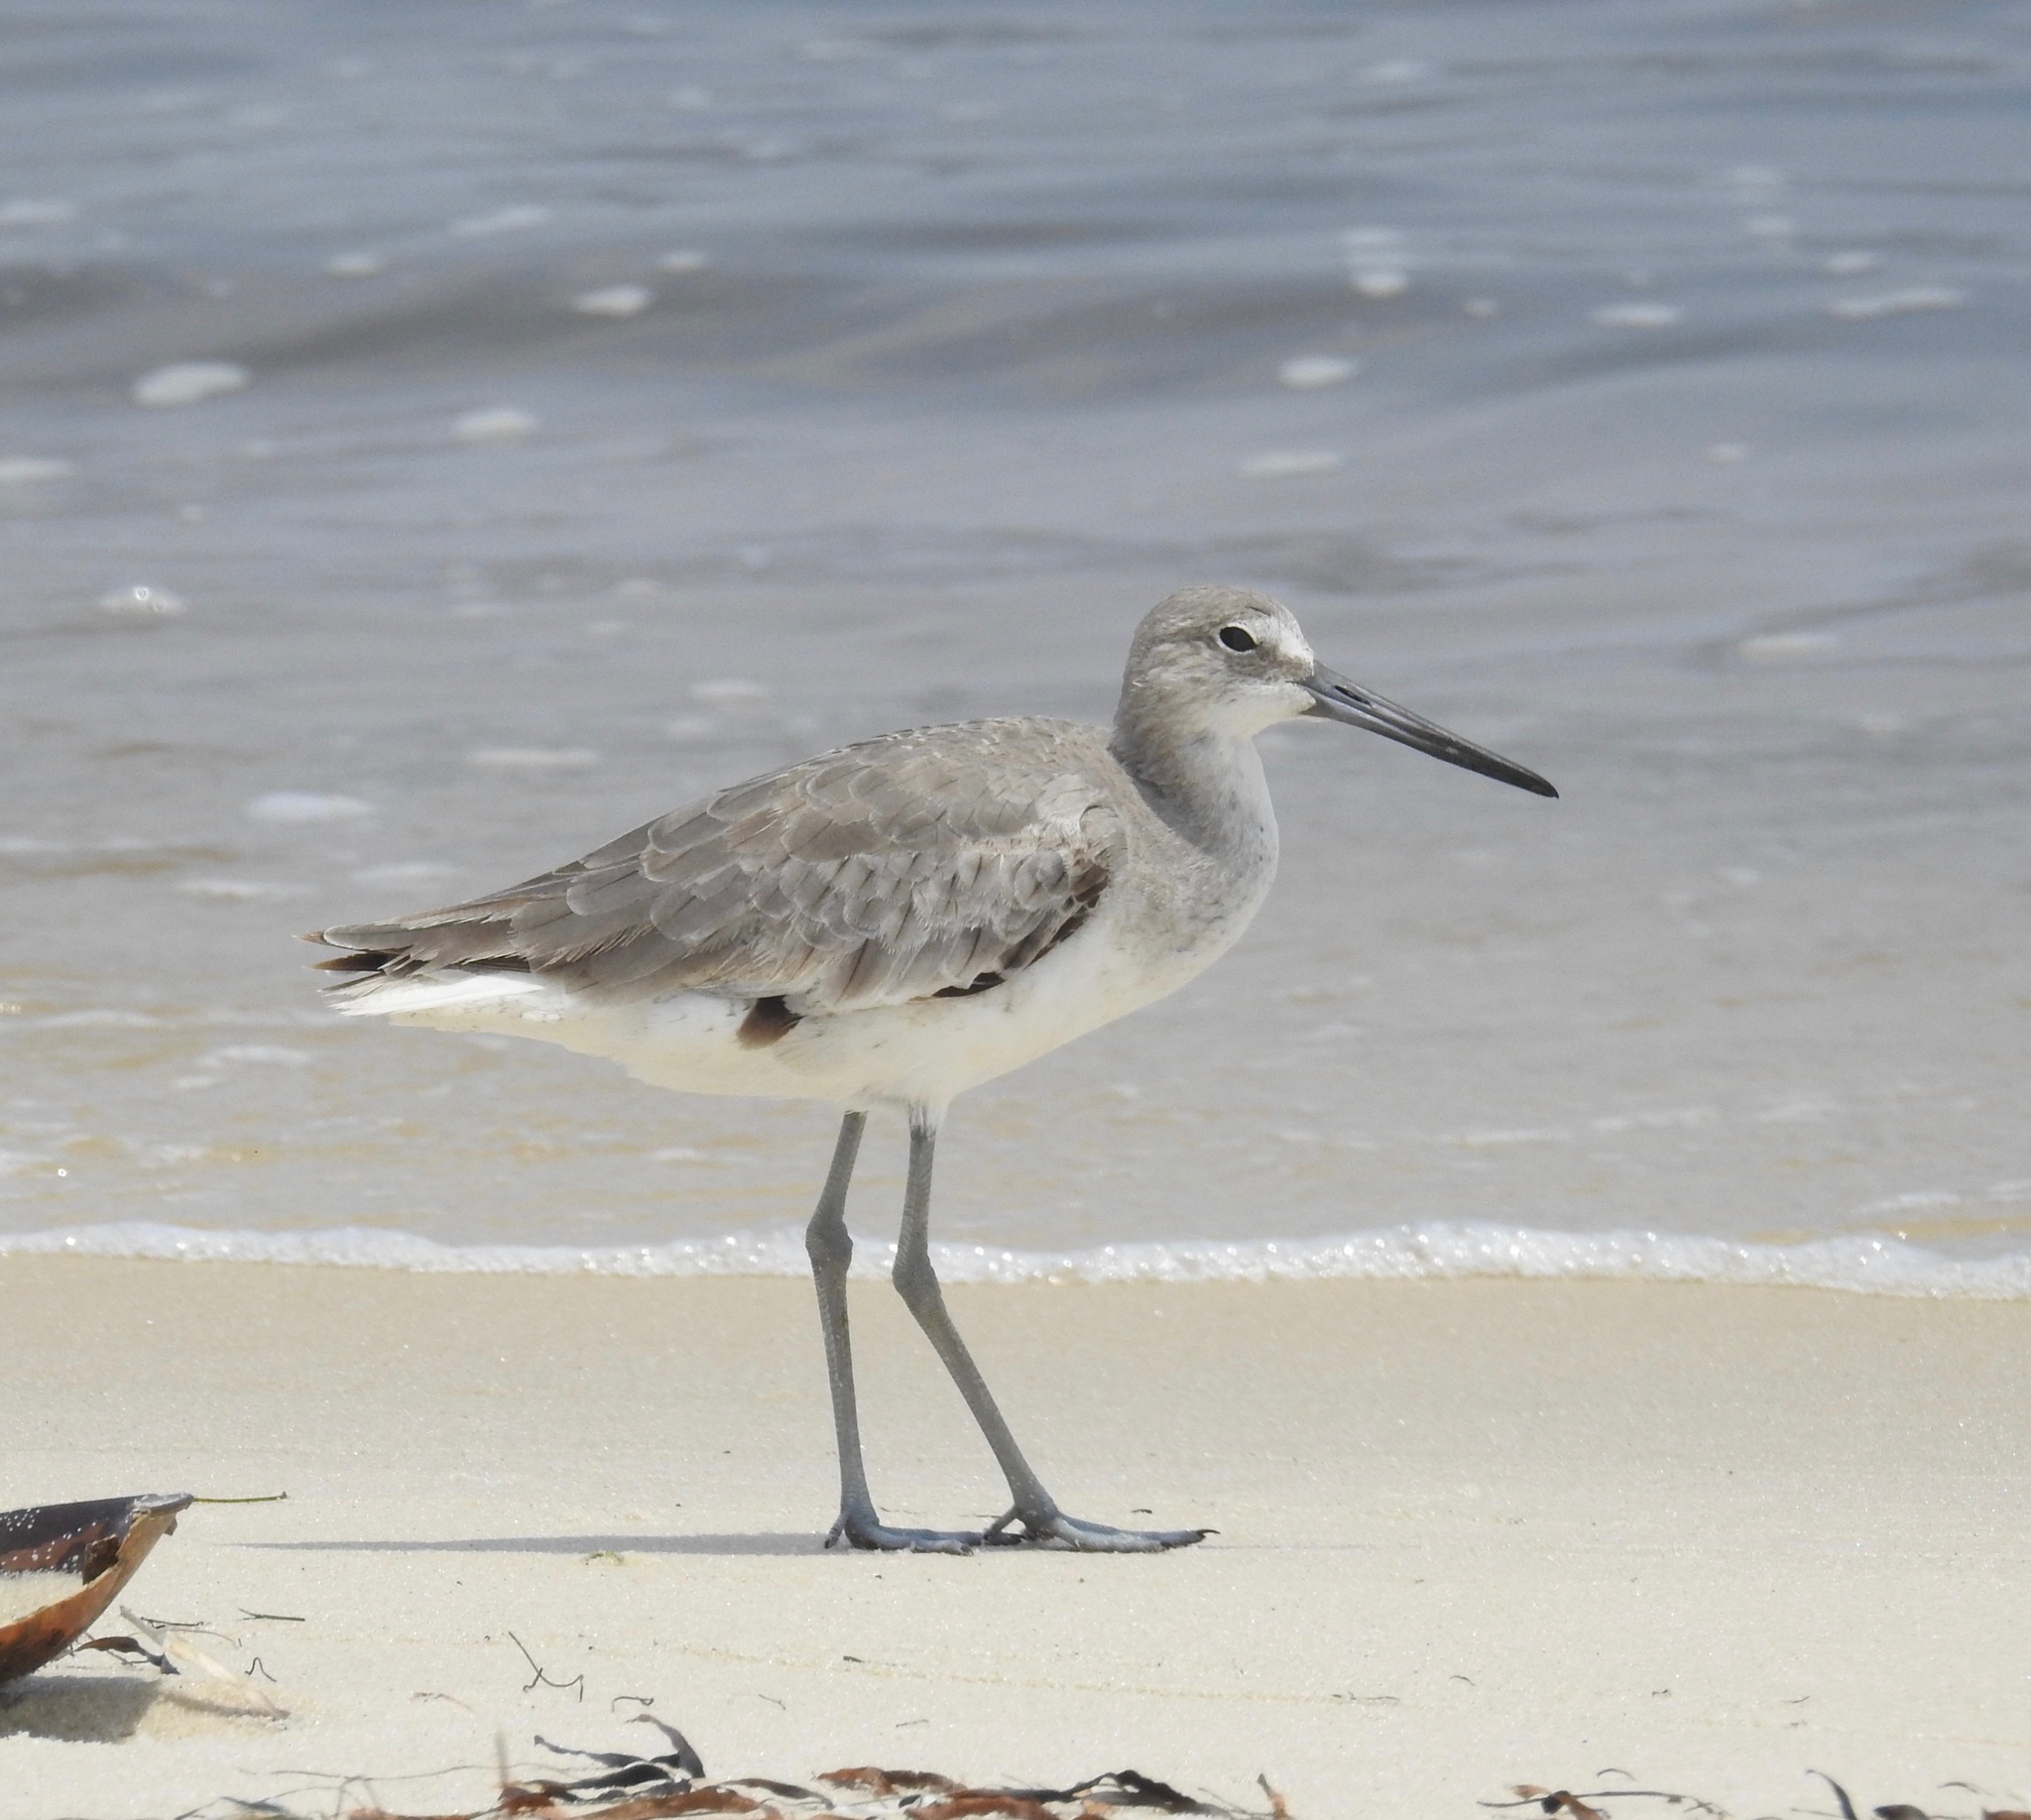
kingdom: Animalia
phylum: Chordata
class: Aves
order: Charadriiformes
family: Scolopacidae
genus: Tringa
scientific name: Tringa semipalmata
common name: Willet
